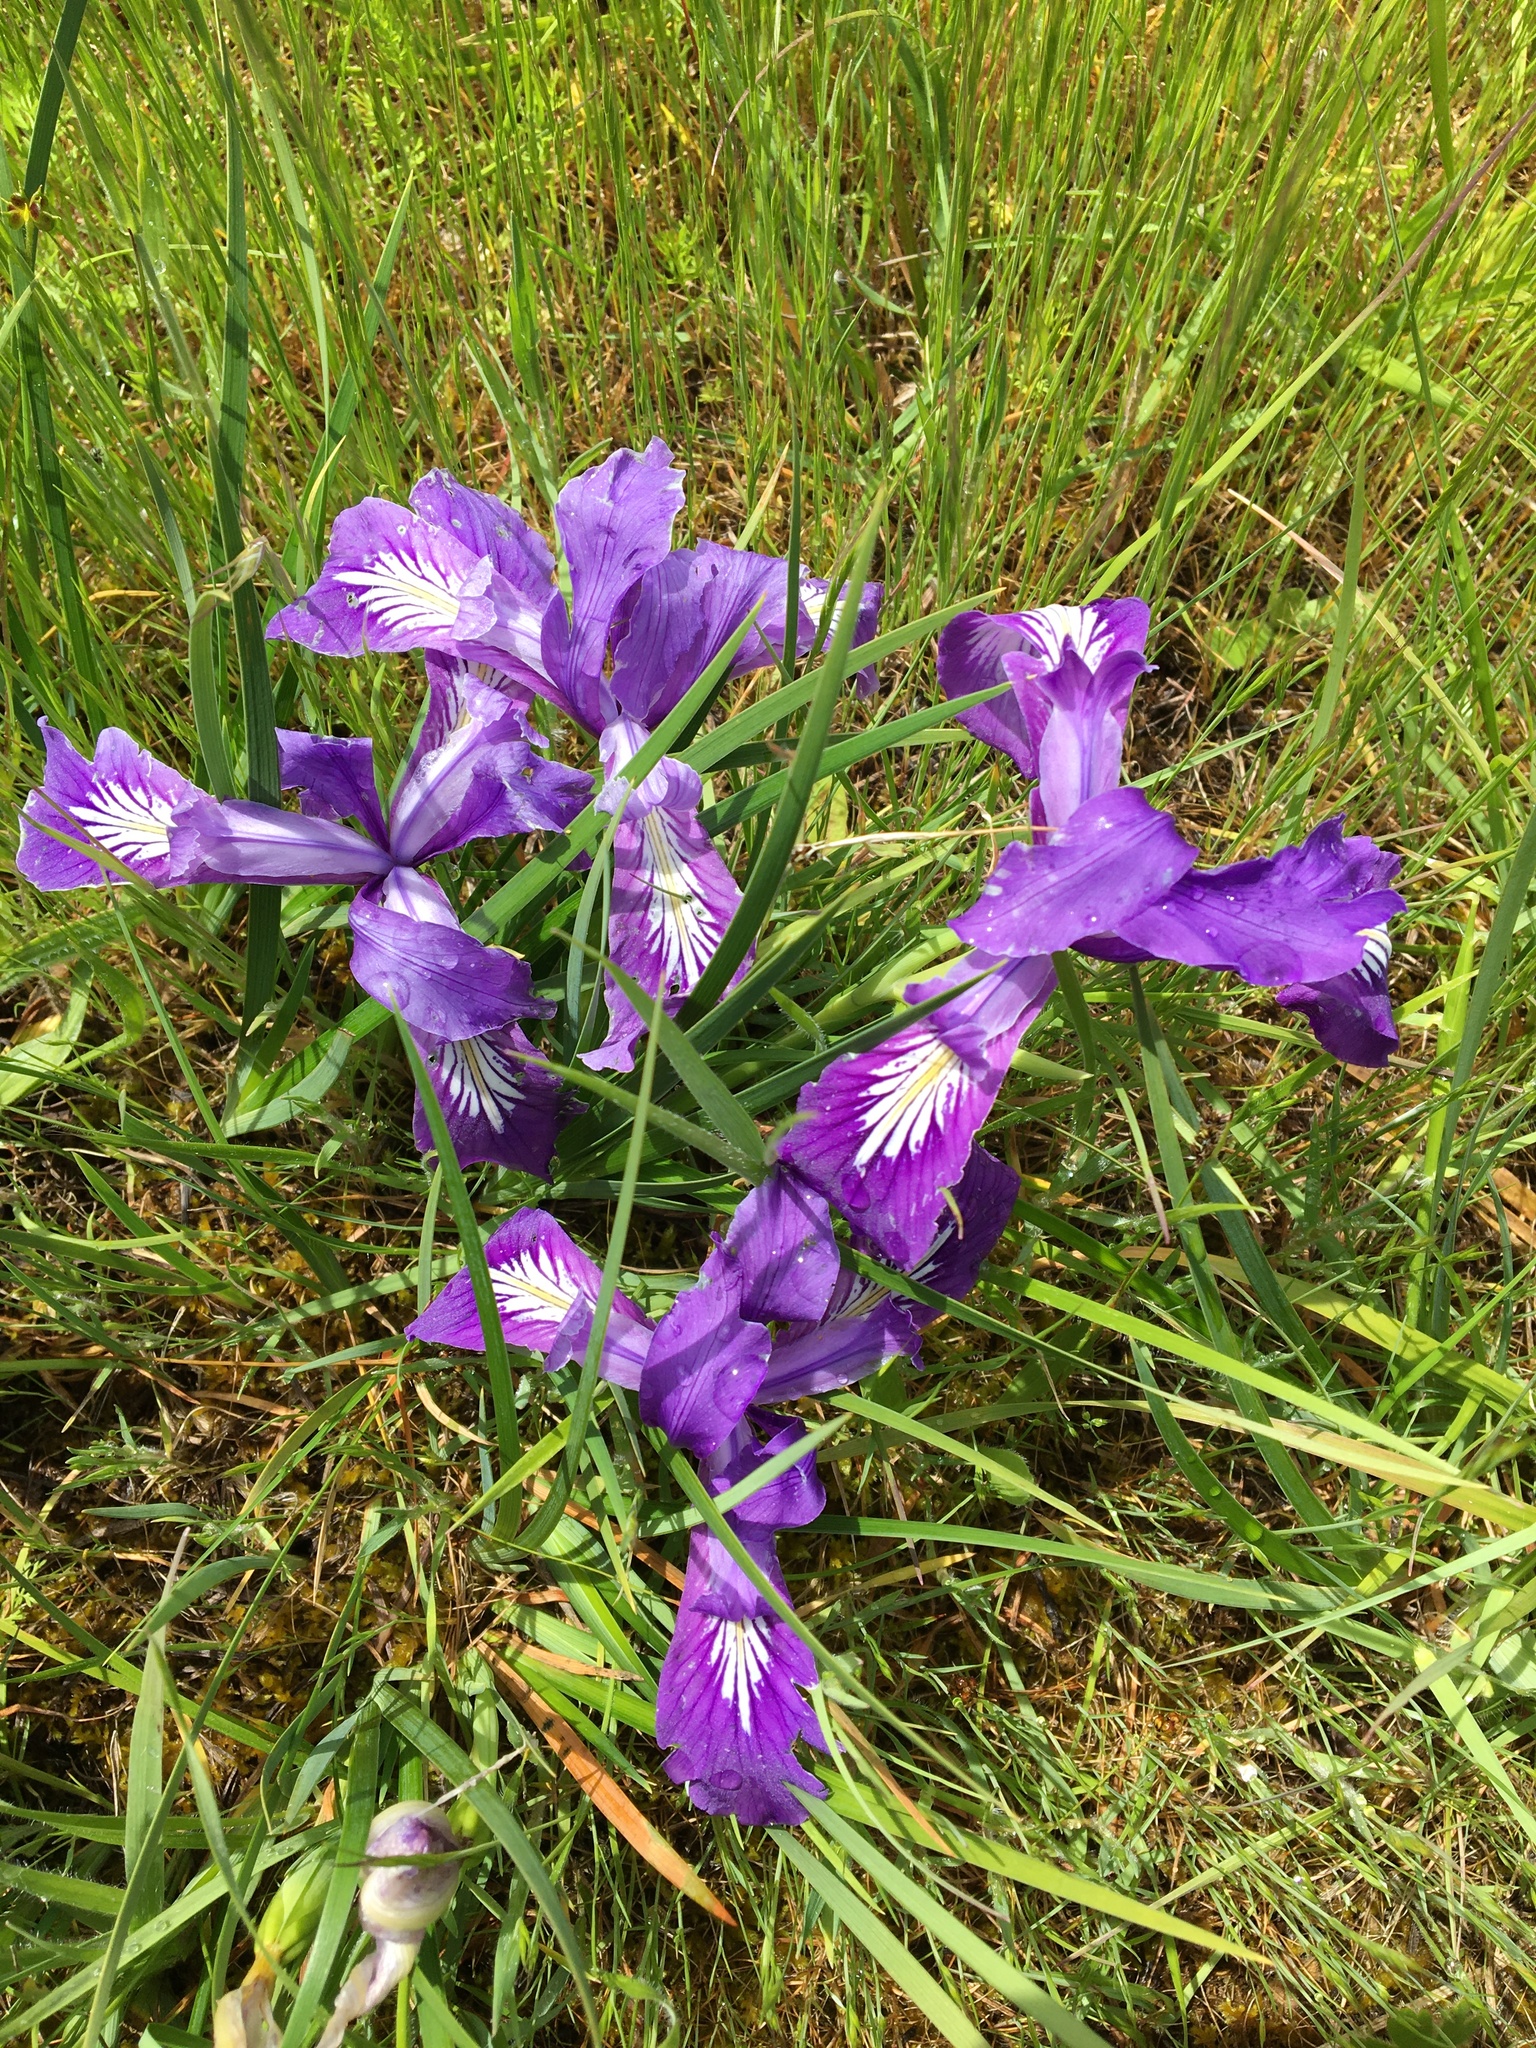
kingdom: Plantae
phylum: Tracheophyta
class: Liliopsida
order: Asparagales
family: Iridaceae
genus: Iris
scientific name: Iris tenax
